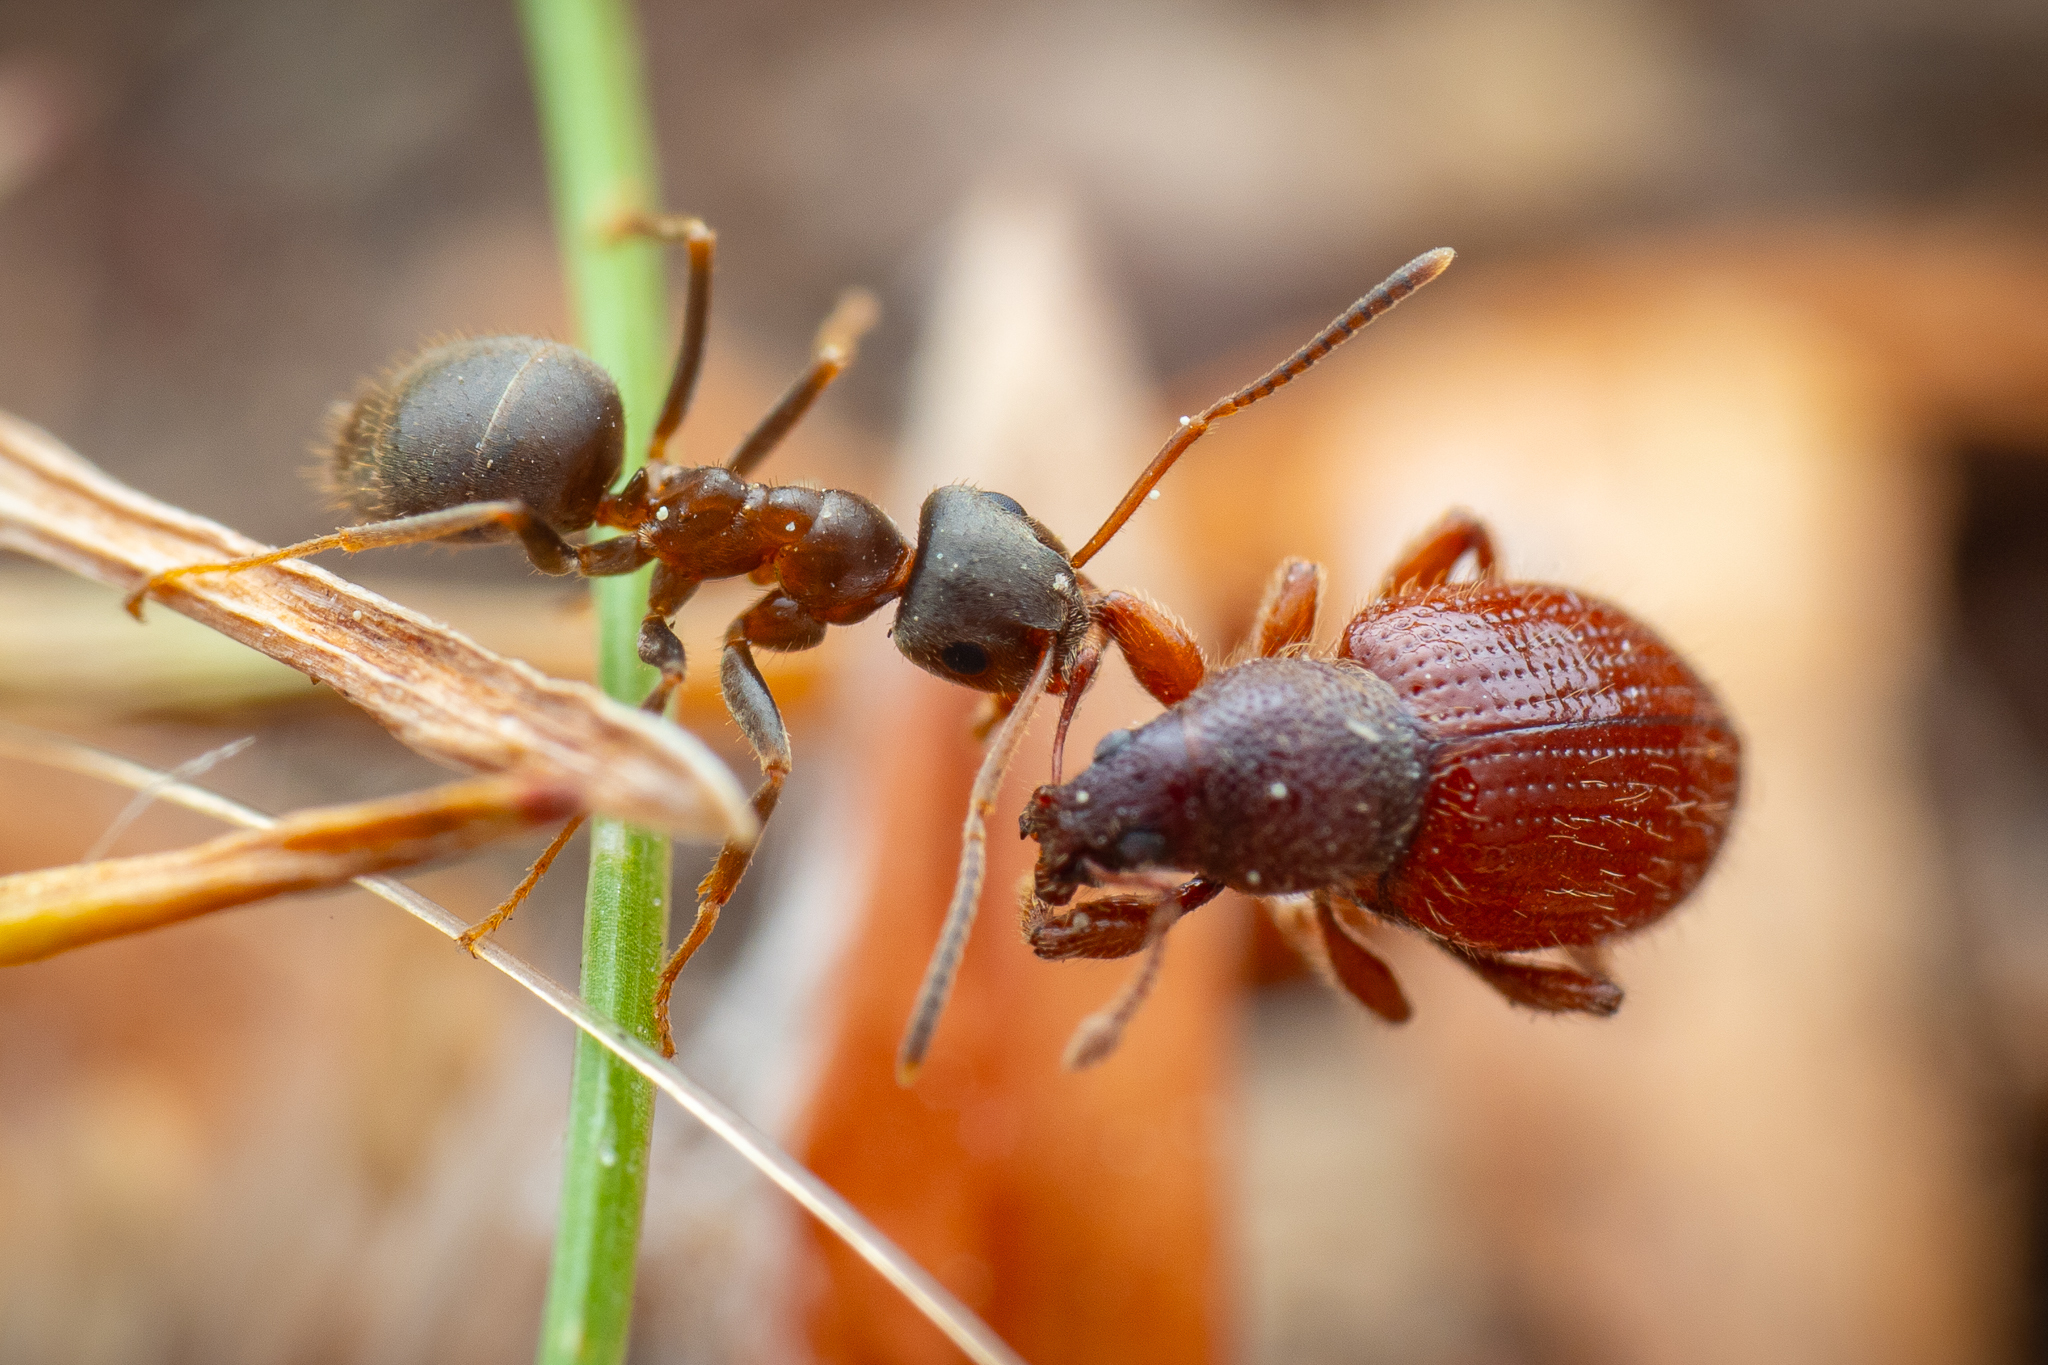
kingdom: Animalia
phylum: Arthropoda
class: Insecta
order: Hymenoptera
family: Formicidae
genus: Lasius
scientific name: Lasius niger
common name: Small black ant
